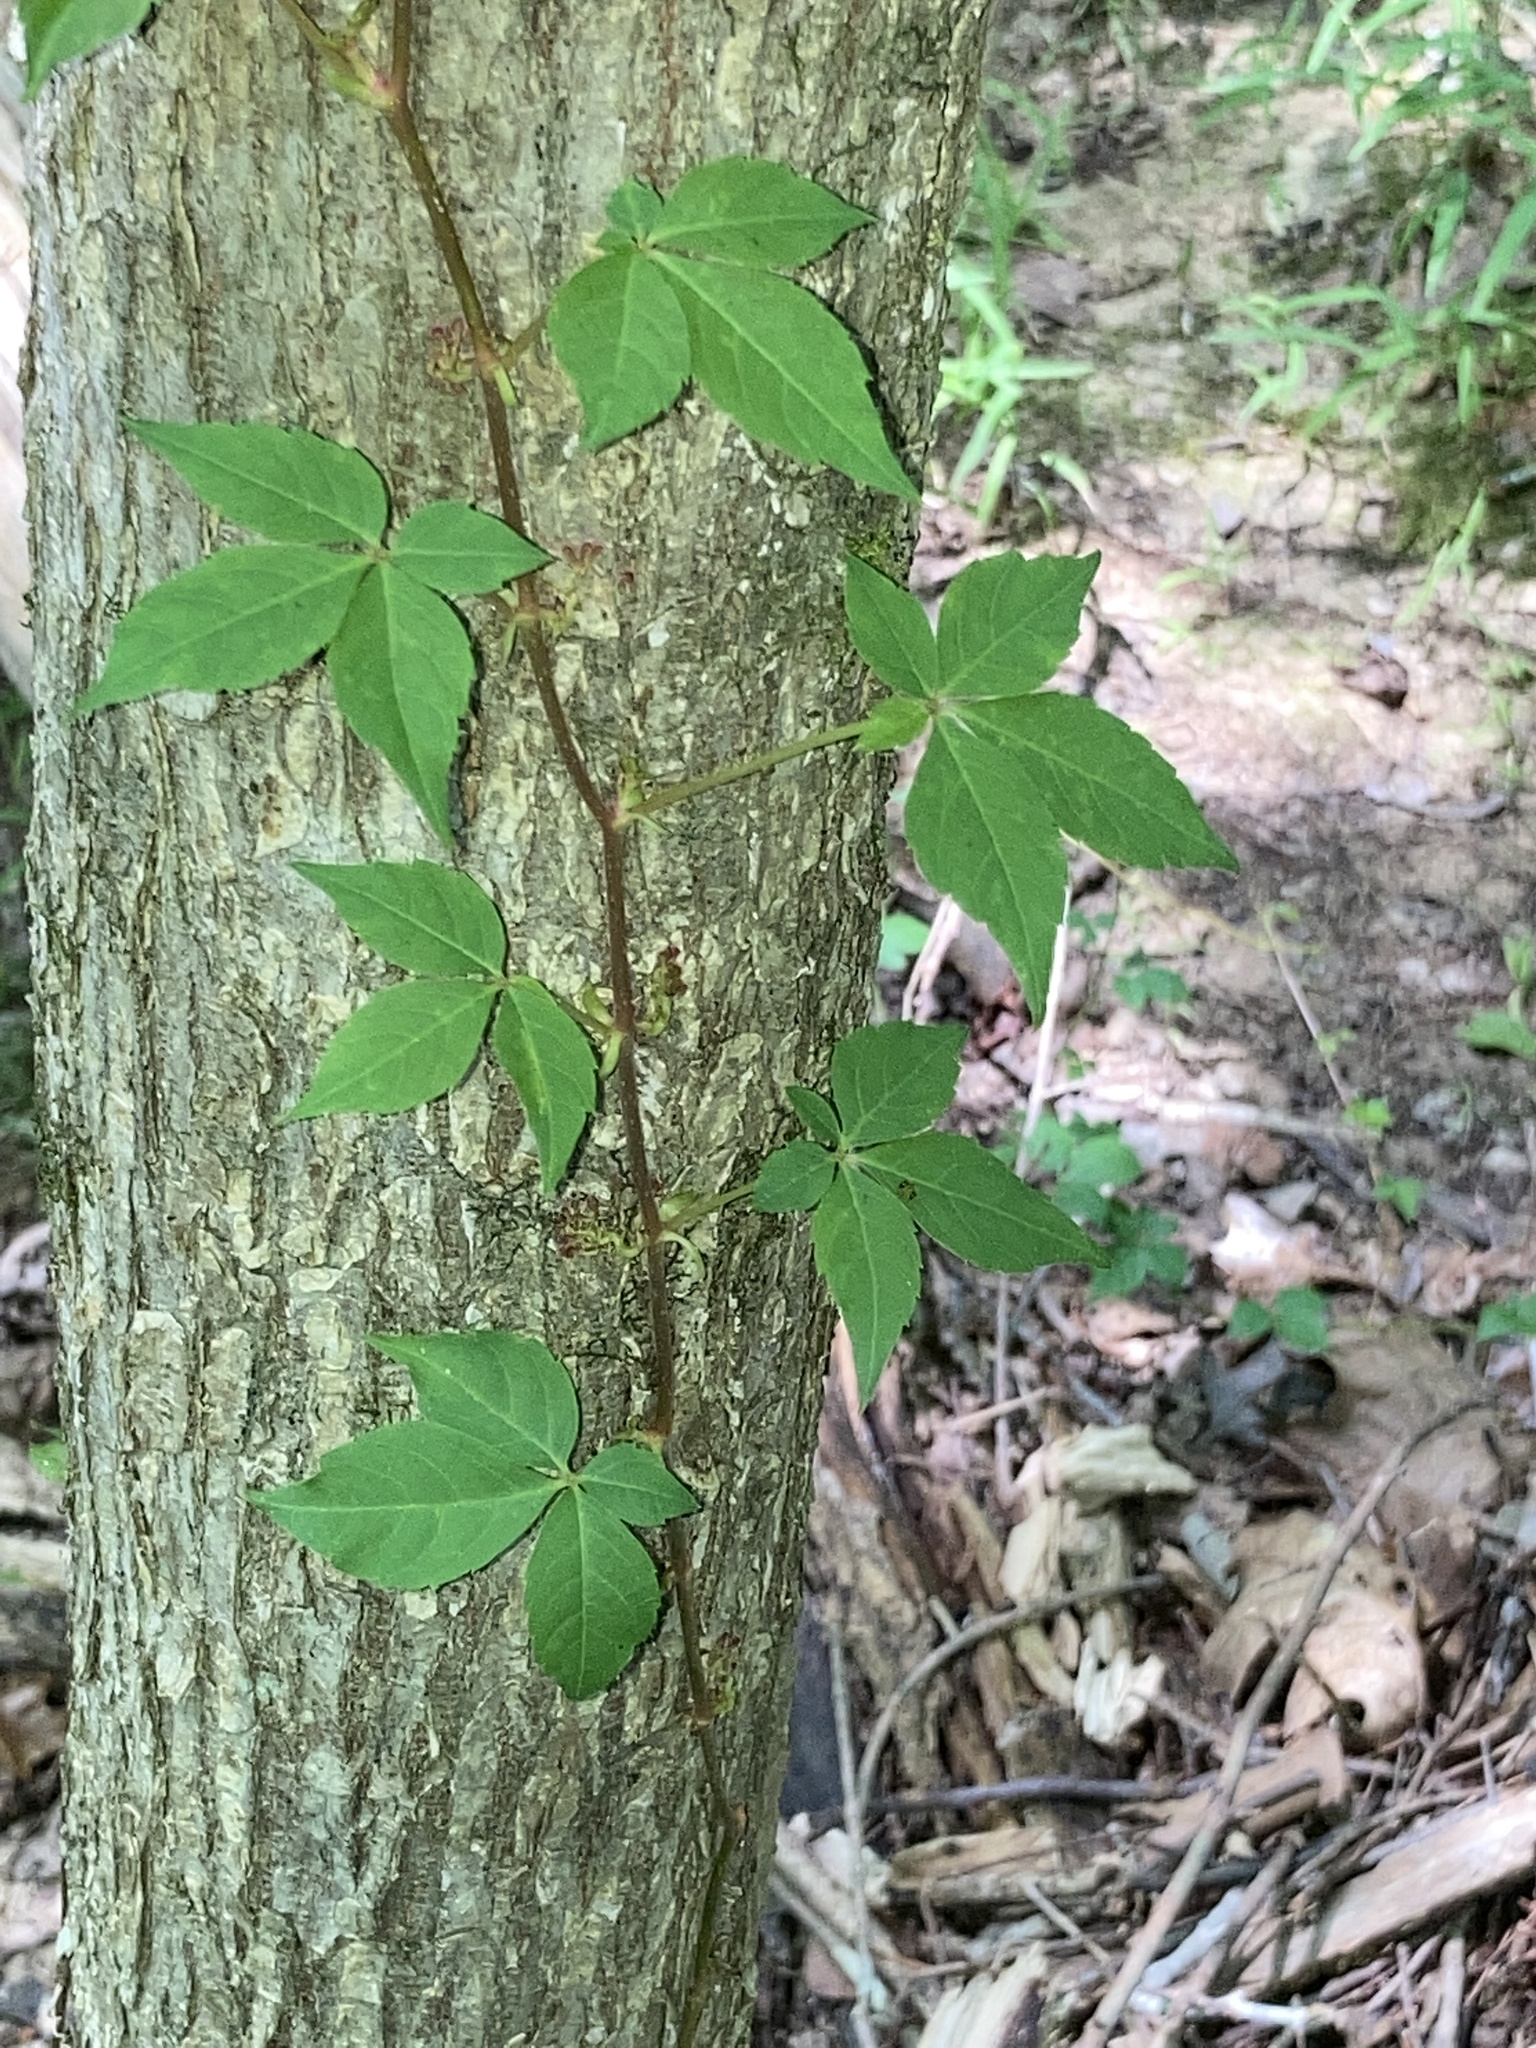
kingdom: Plantae
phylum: Tracheophyta
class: Magnoliopsida
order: Vitales
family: Vitaceae
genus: Parthenocissus
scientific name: Parthenocissus quinquefolia
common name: Virginia-creeper
